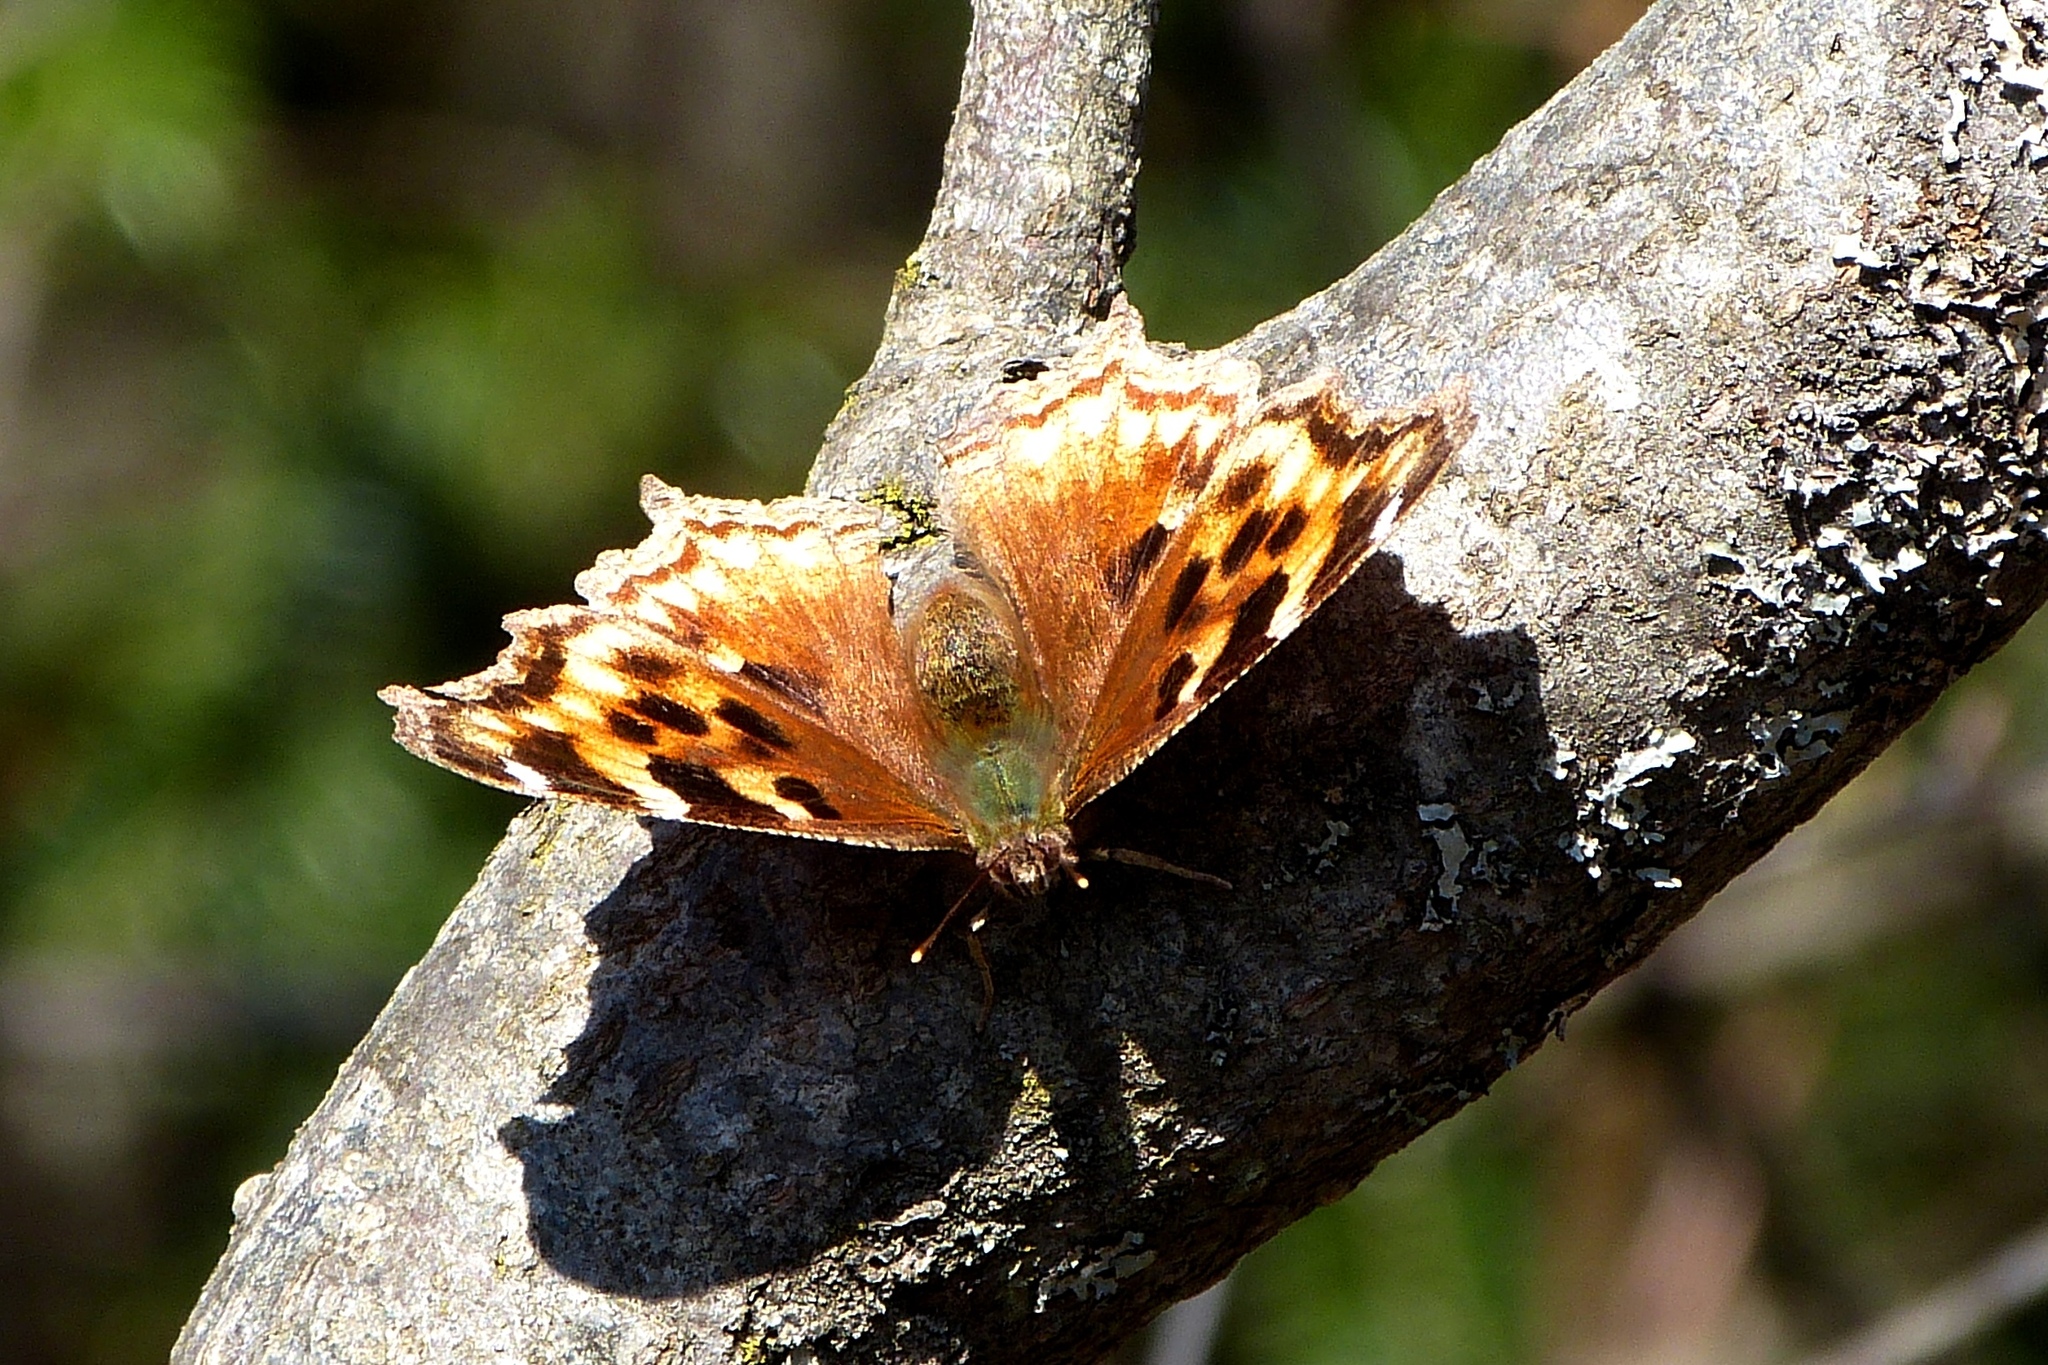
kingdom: Animalia
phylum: Arthropoda
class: Insecta
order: Lepidoptera
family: Nymphalidae
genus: Polygonia
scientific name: Polygonia vaualbum
